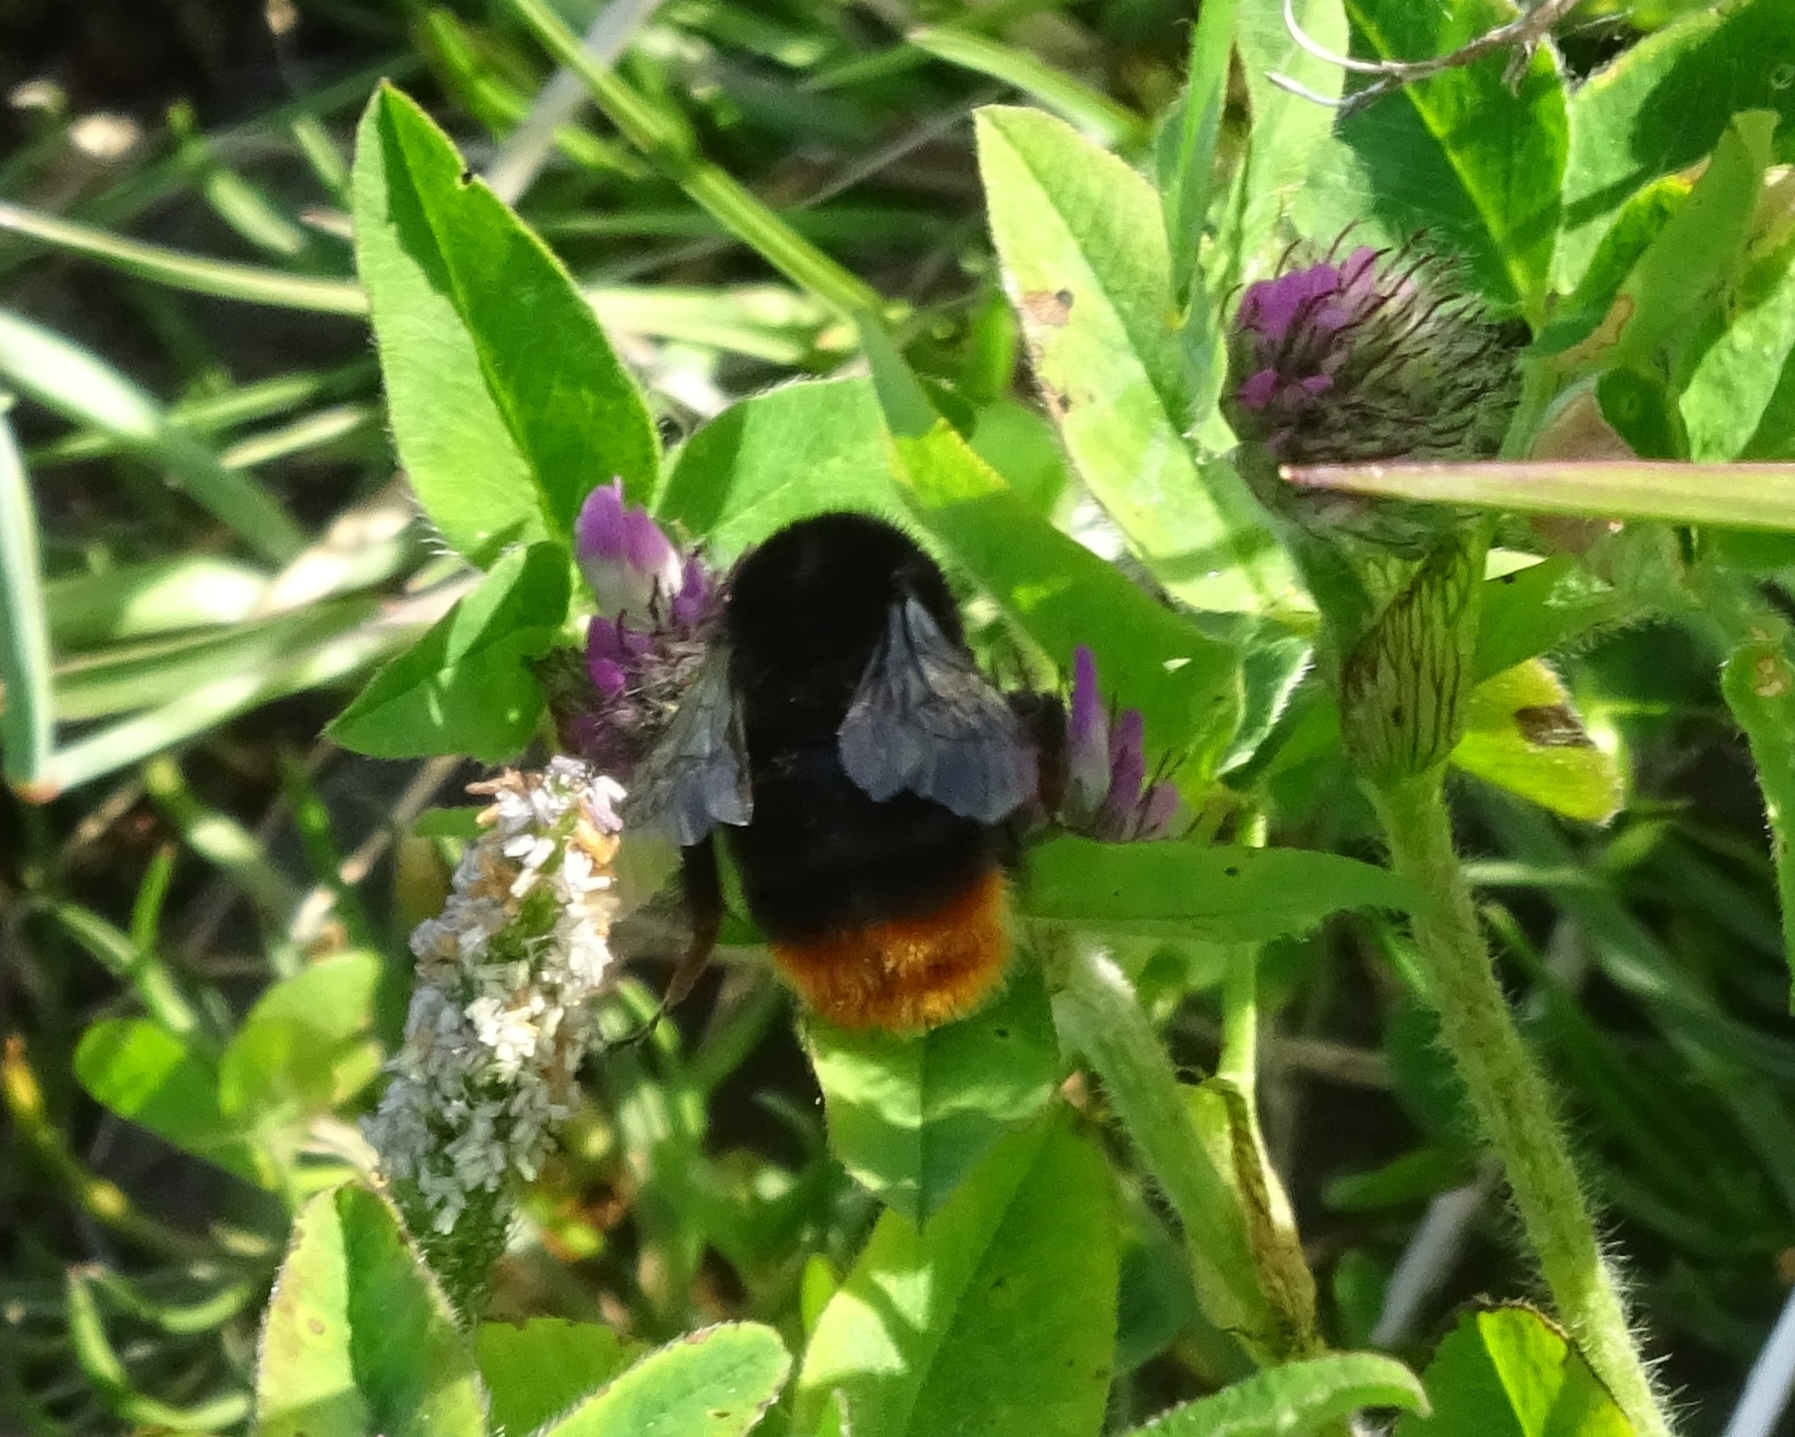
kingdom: Animalia
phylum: Arthropoda
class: Insecta
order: Hymenoptera
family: Apidae
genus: Bombus
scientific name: Bombus lapidarius
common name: Large red-tailed humble-bee
